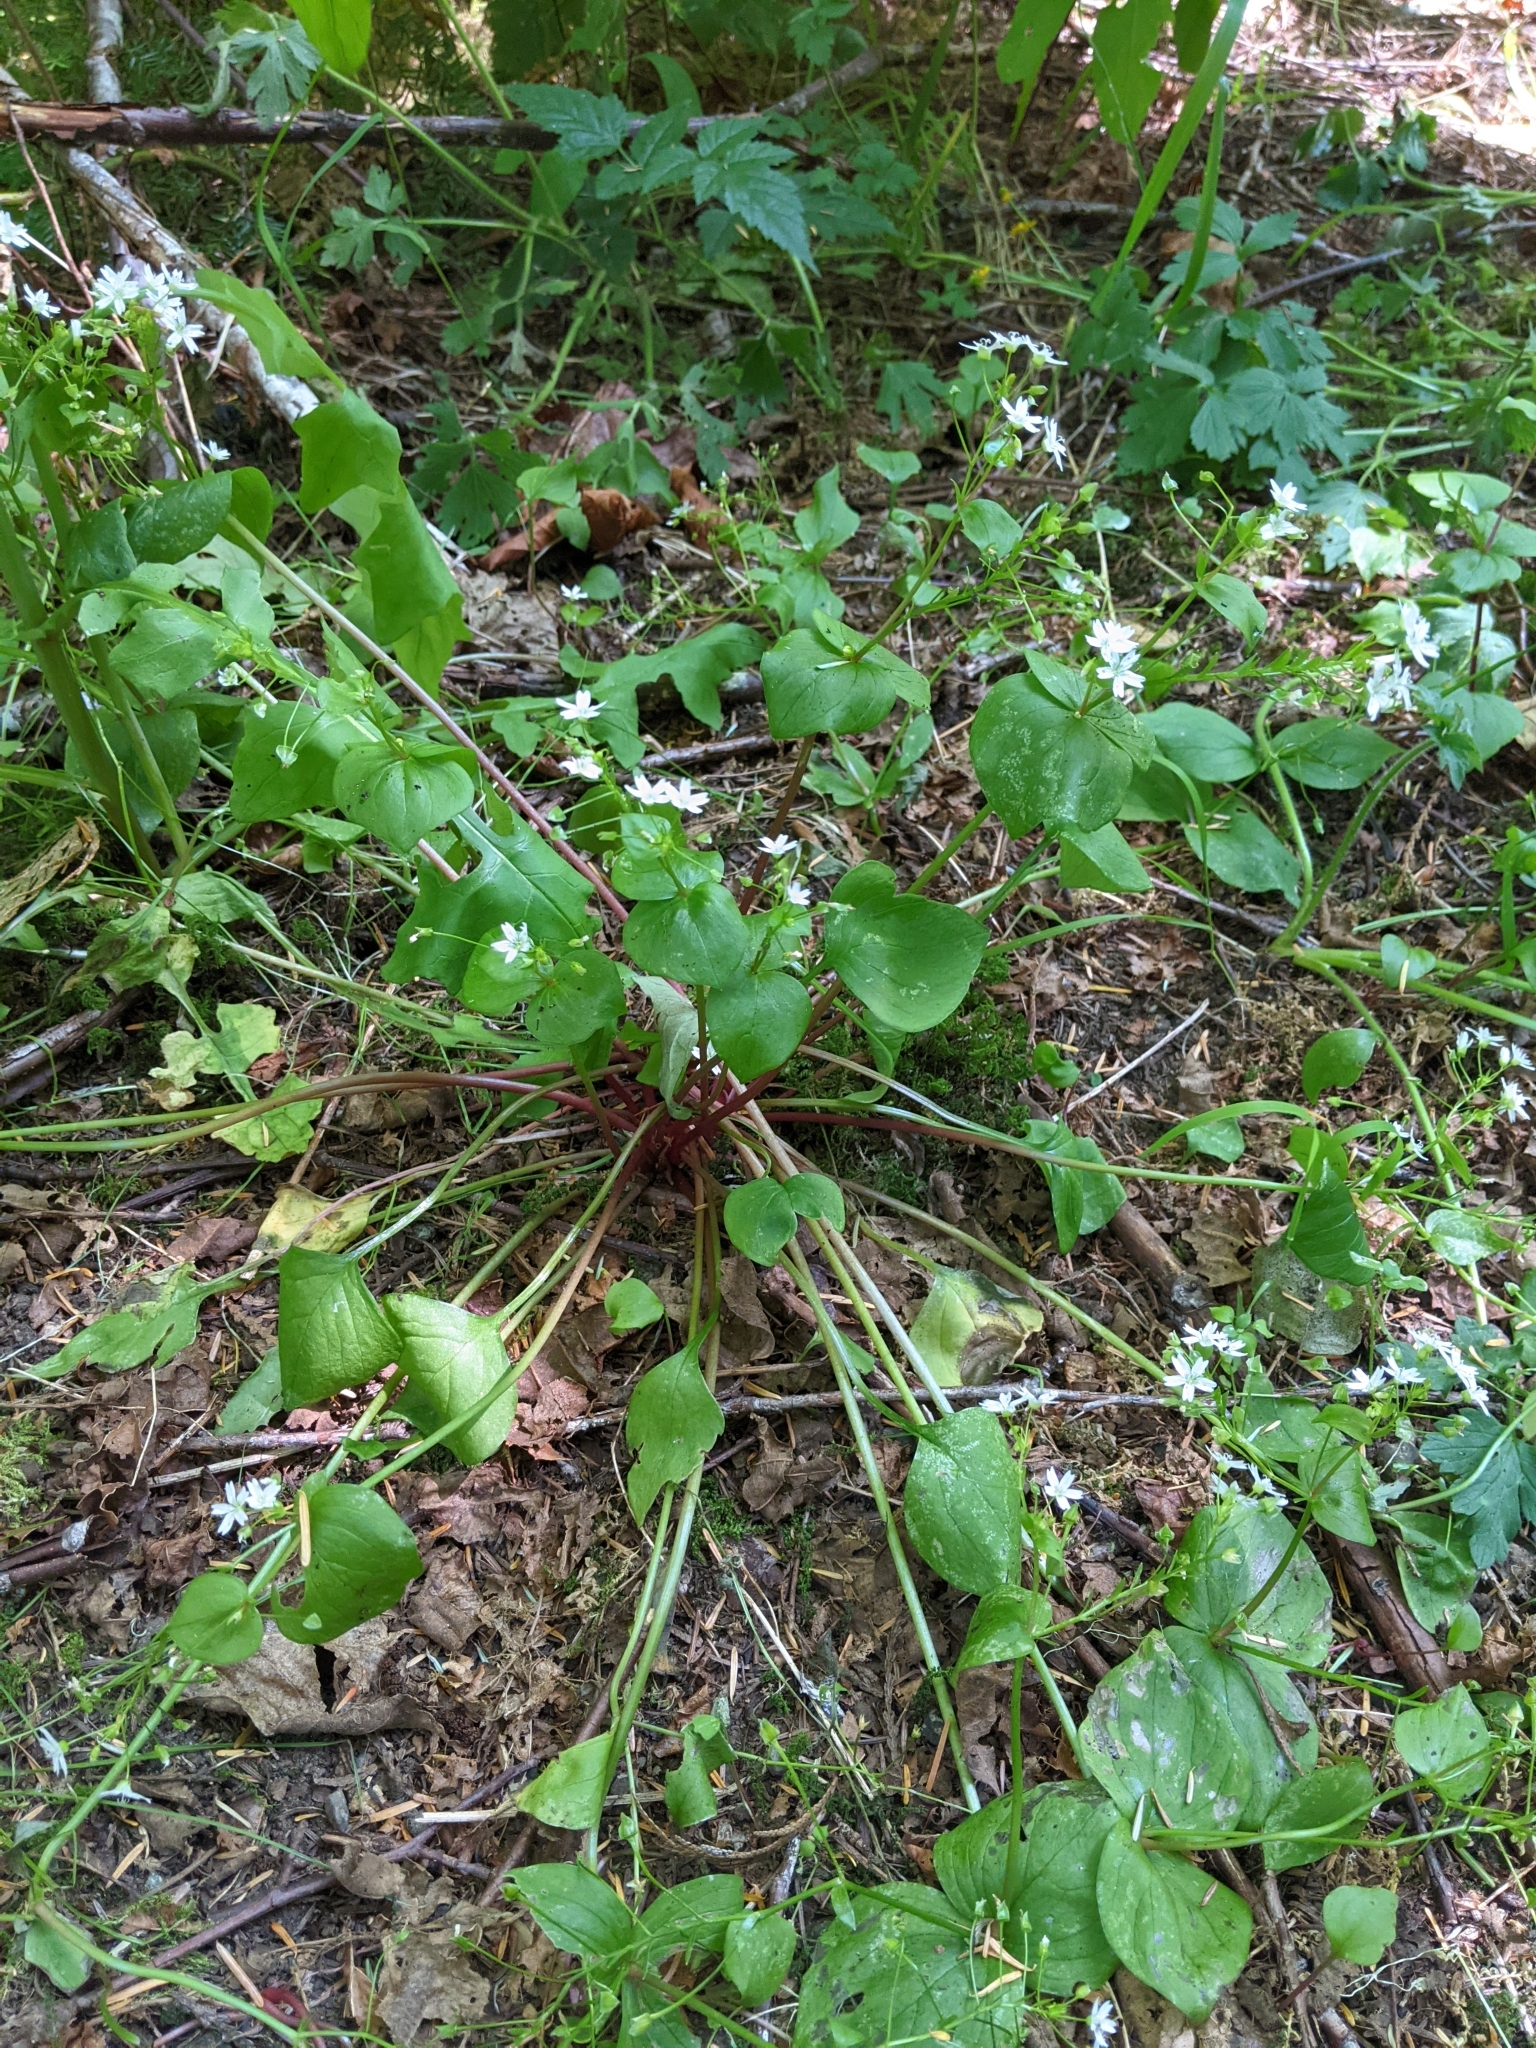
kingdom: Plantae
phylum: Tracheophyta
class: Magnoliopsida
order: Caryophyllales
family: Montiaceae
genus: Claytonia
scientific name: Claytonia sibirica
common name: Pink purslane
